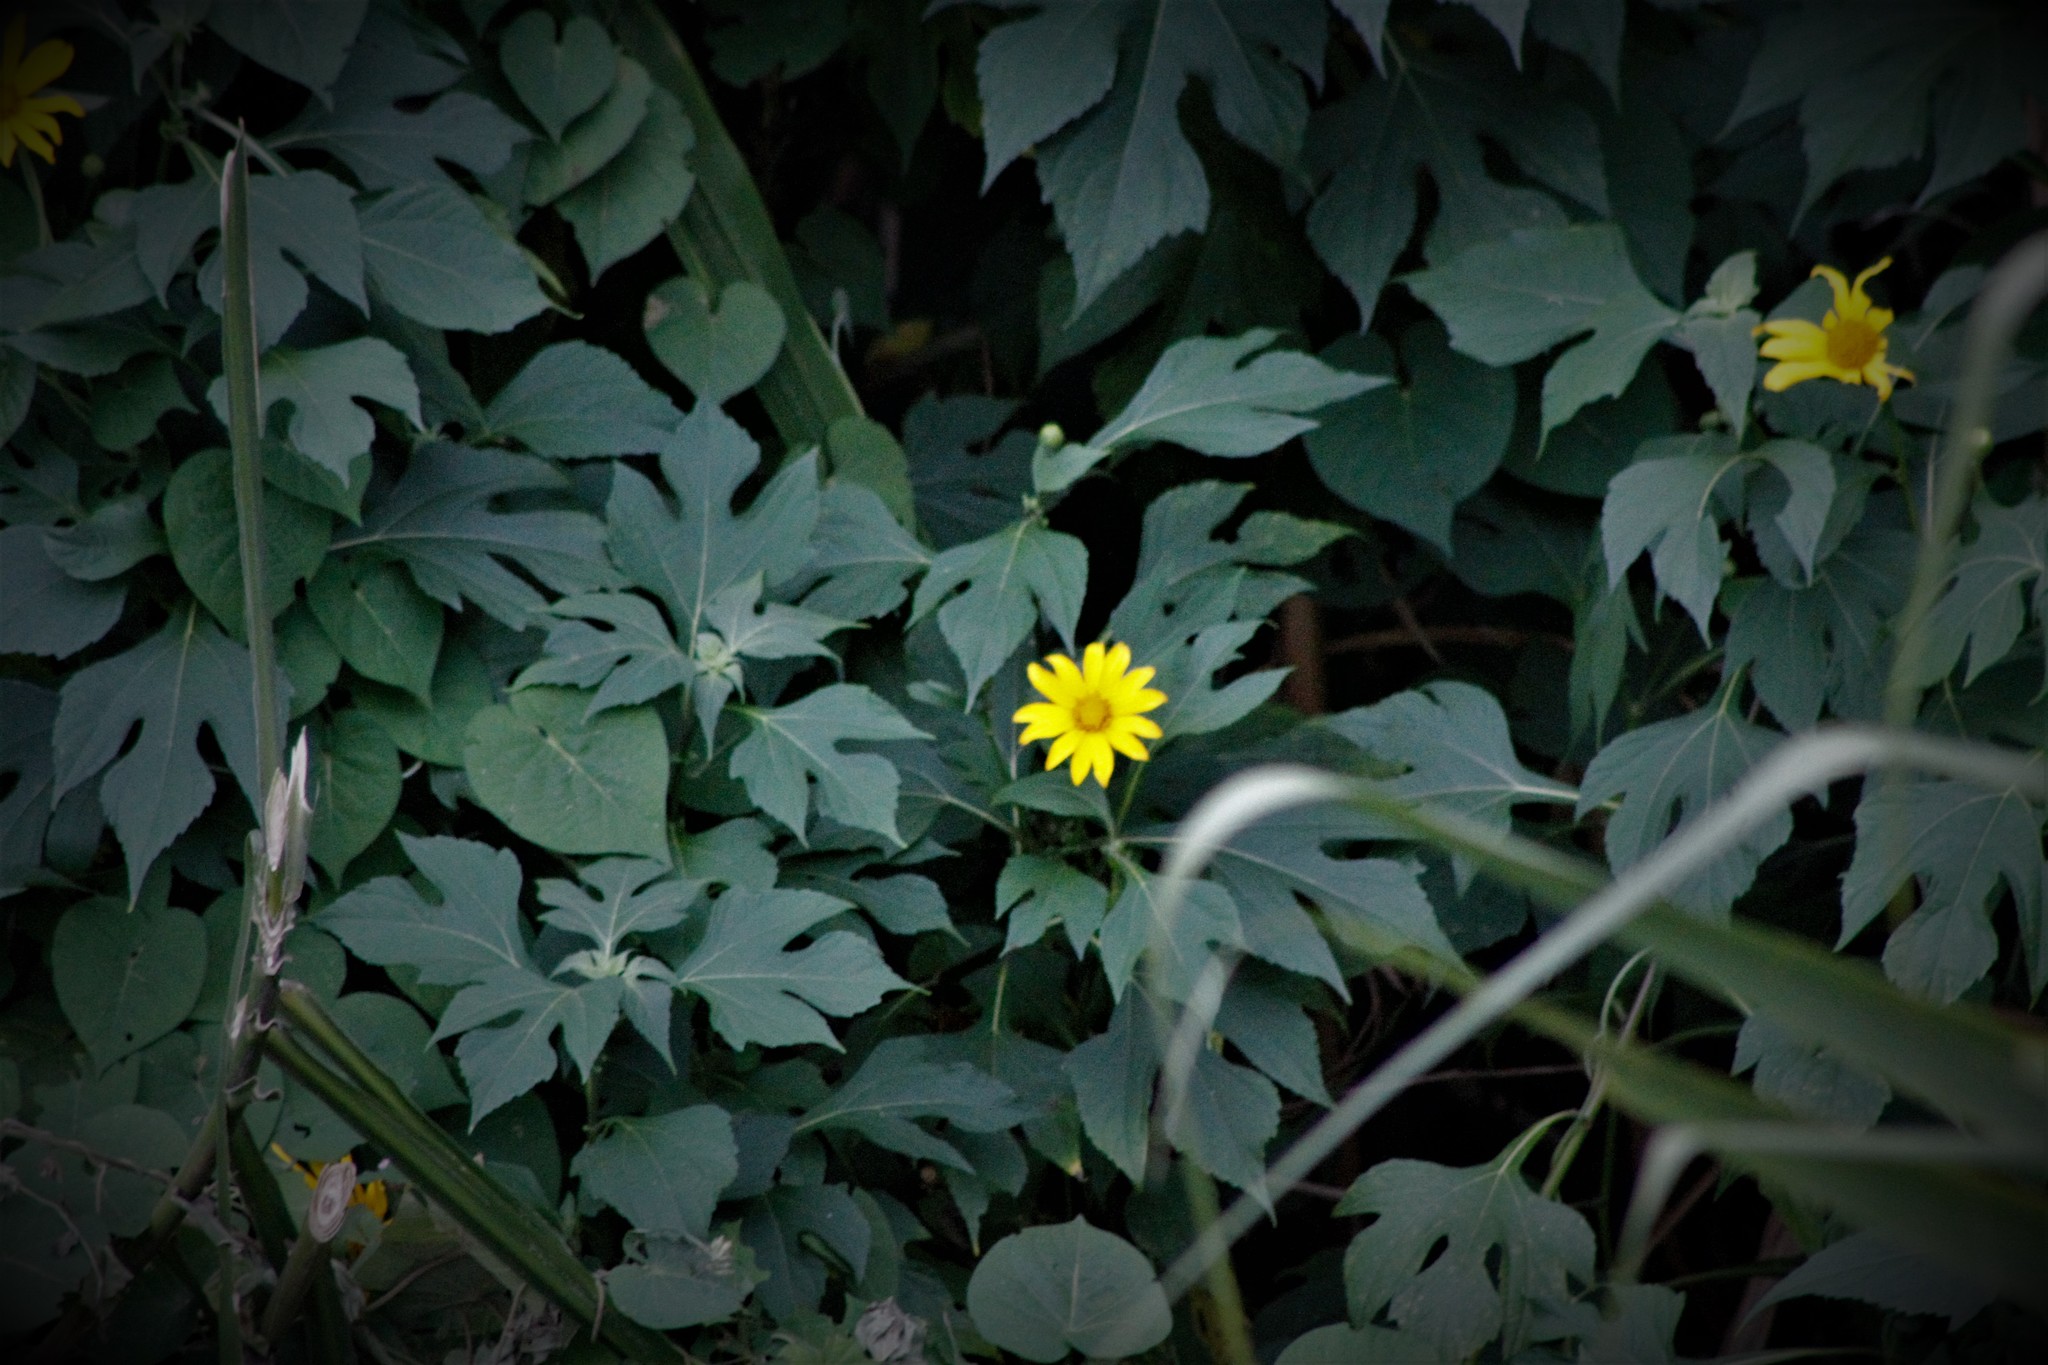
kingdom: Plantae
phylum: Tracheophyta
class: Magnoliopsida
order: Asterales
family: Asteraceae
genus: Tithonia
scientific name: Tithonia diversifolia
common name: Tree marigold
